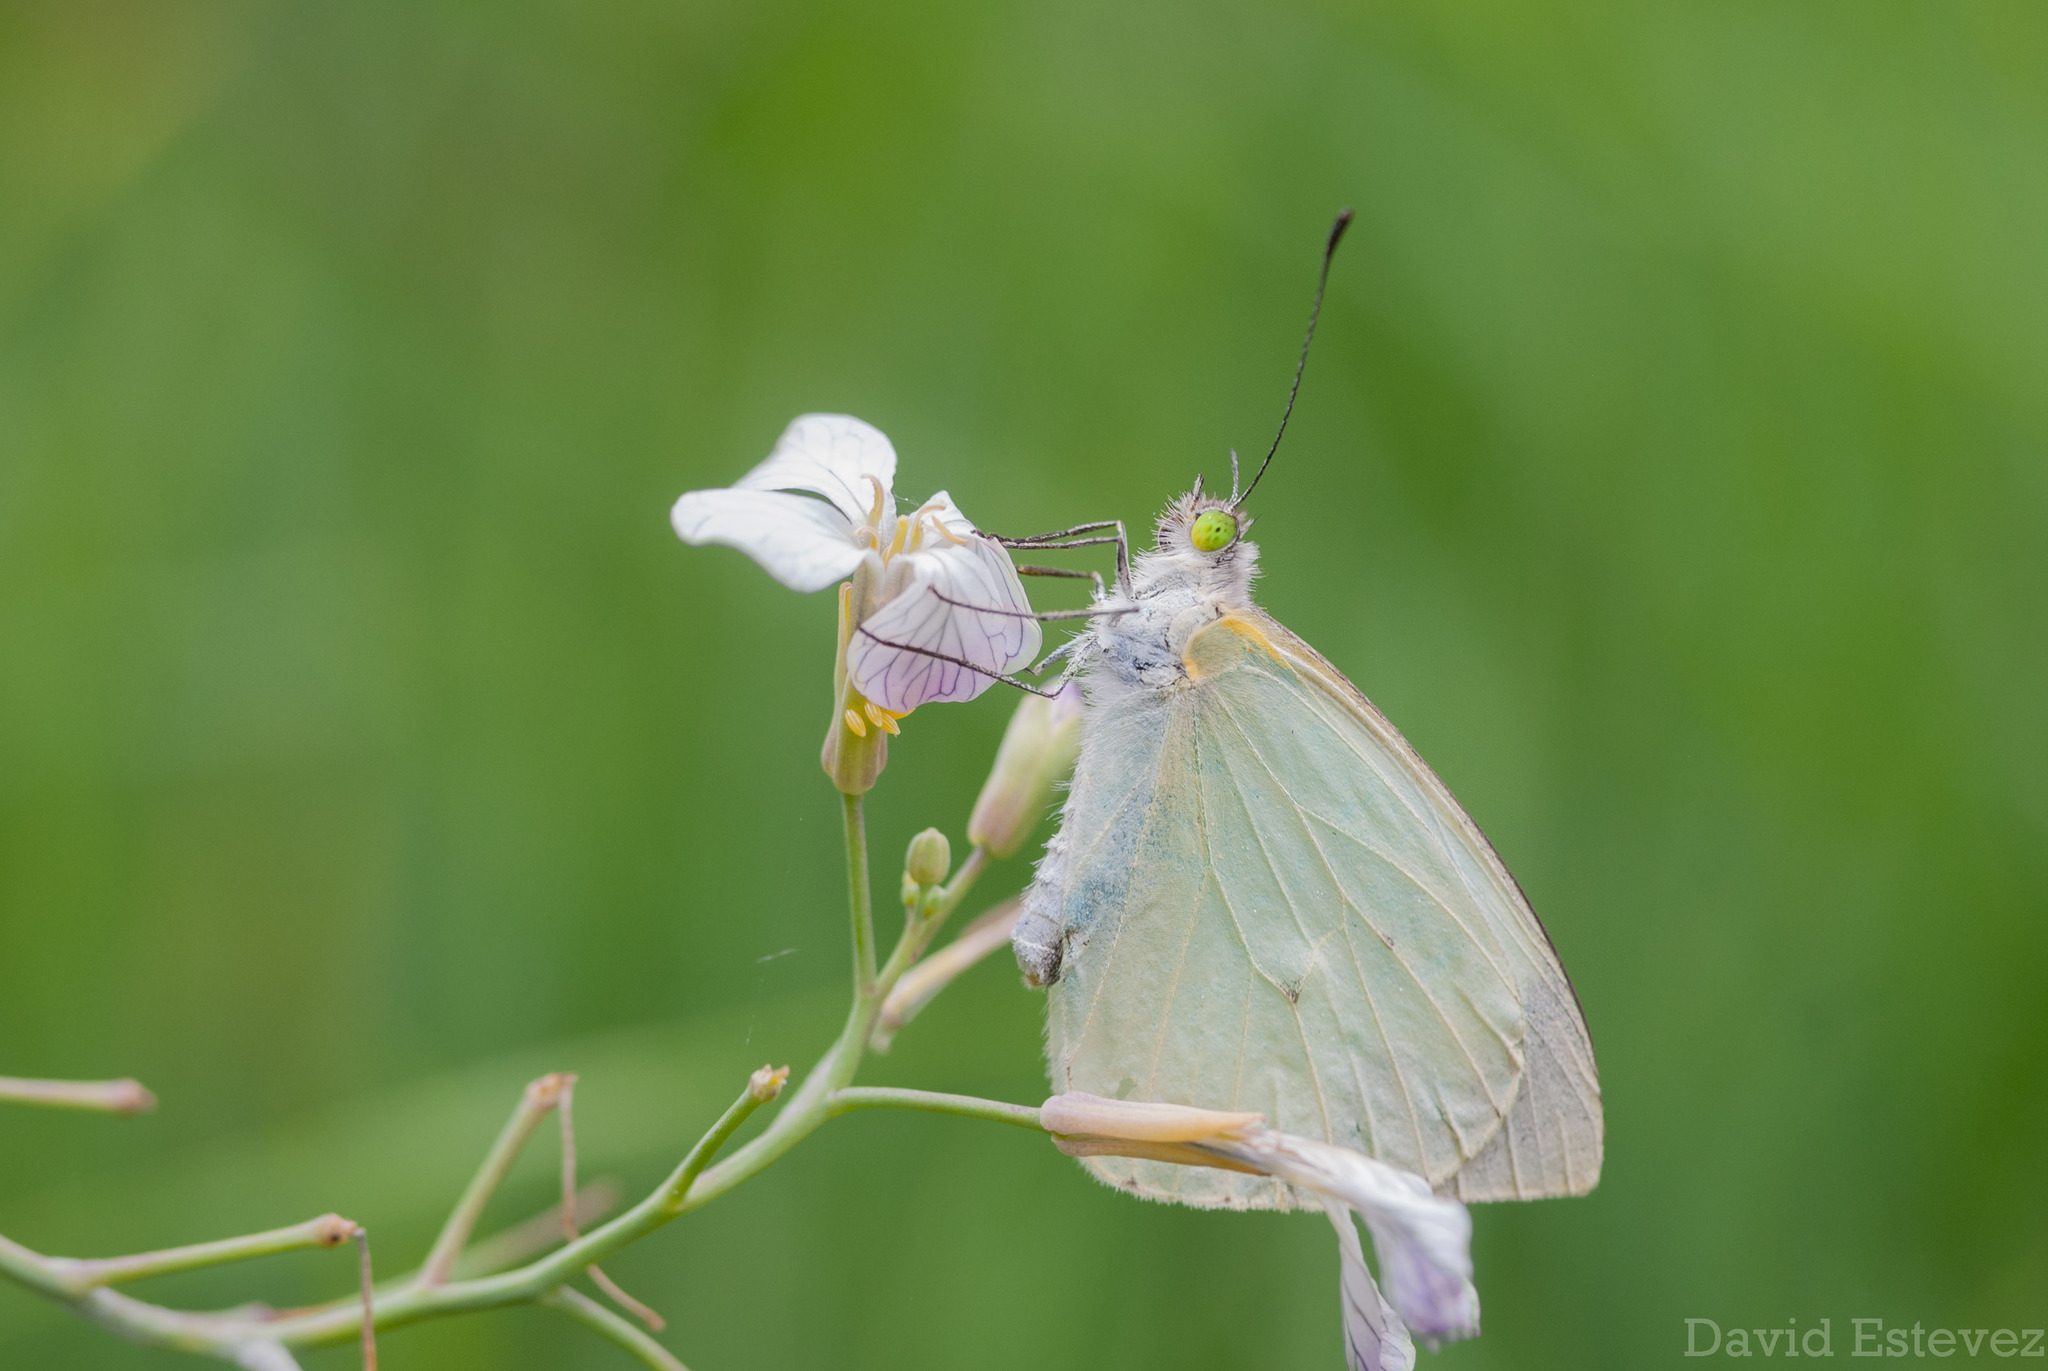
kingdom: Animalia
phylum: Arthropoda
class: Insecta
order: Lepidoptera
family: Pieridae
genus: Leptophobia
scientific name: Leptophobia aripa
